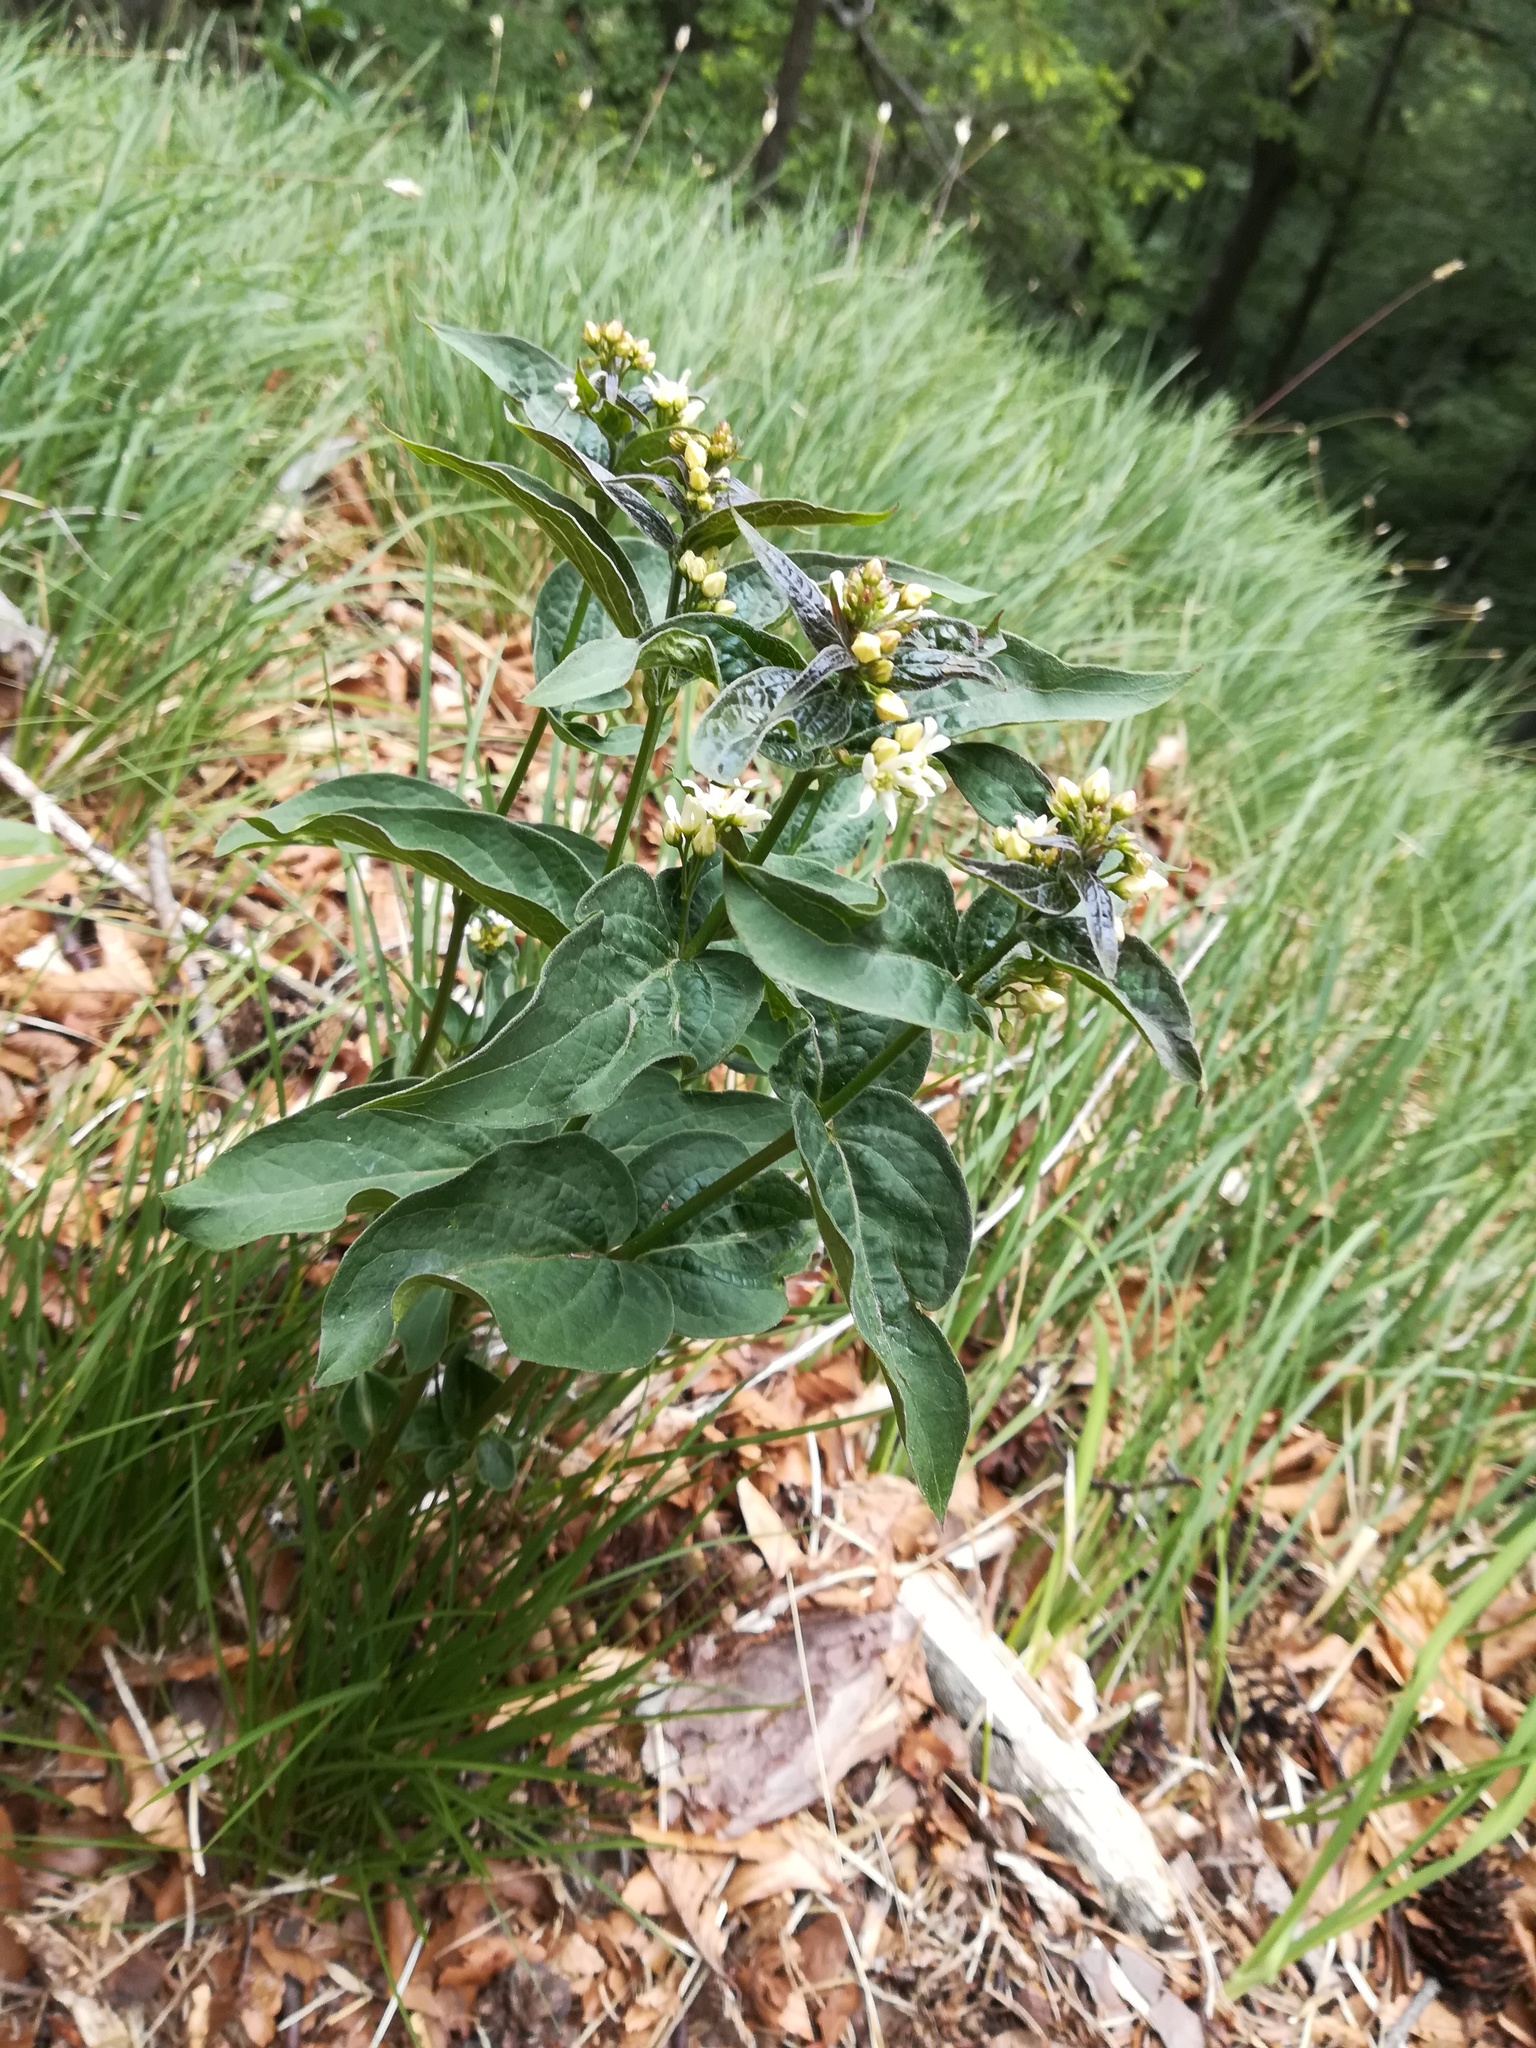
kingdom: Plantae
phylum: Tracheophyta
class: Magnoliopsida
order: Gentianales
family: Apocynaceae
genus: Vincetoxicum
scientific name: Vincetoxicum hirundinaria
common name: White swallowwort
